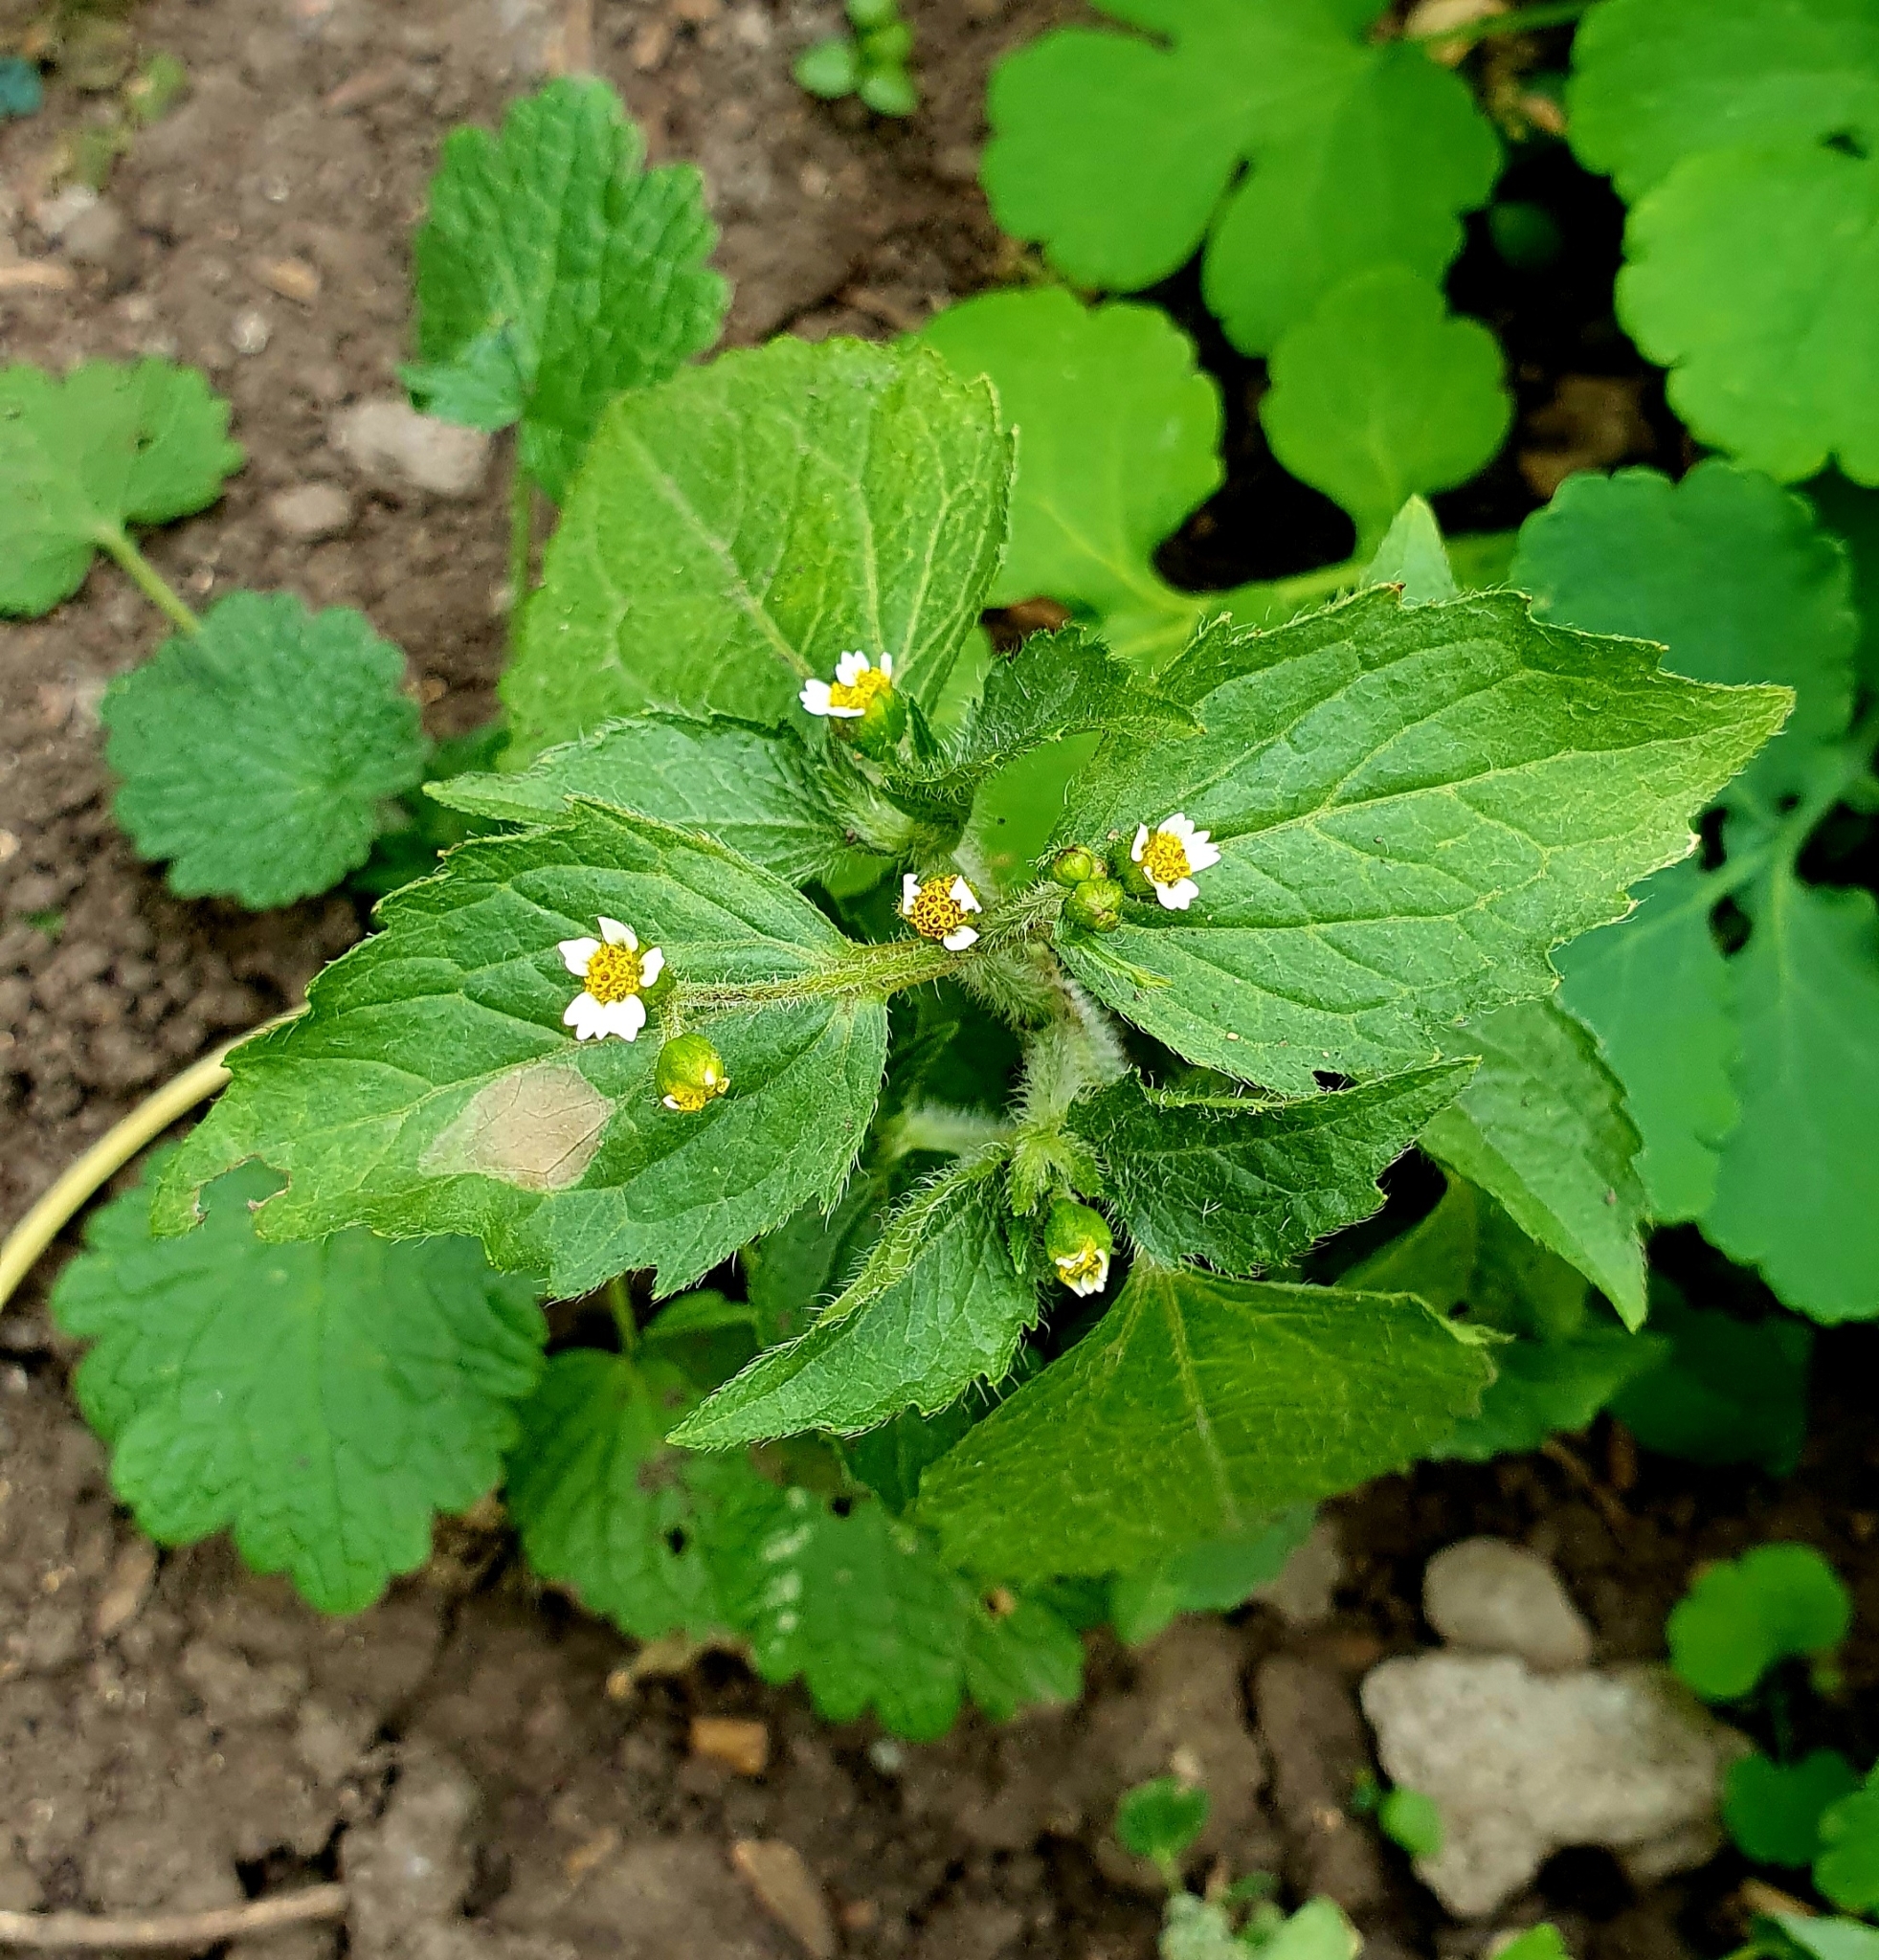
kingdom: Plantae
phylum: Tracheophyta
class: Magnoliopsida
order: Asterales
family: Asteraceae
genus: Galinsoga
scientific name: Galinsoga quadriradiata
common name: Shaggy soldier
